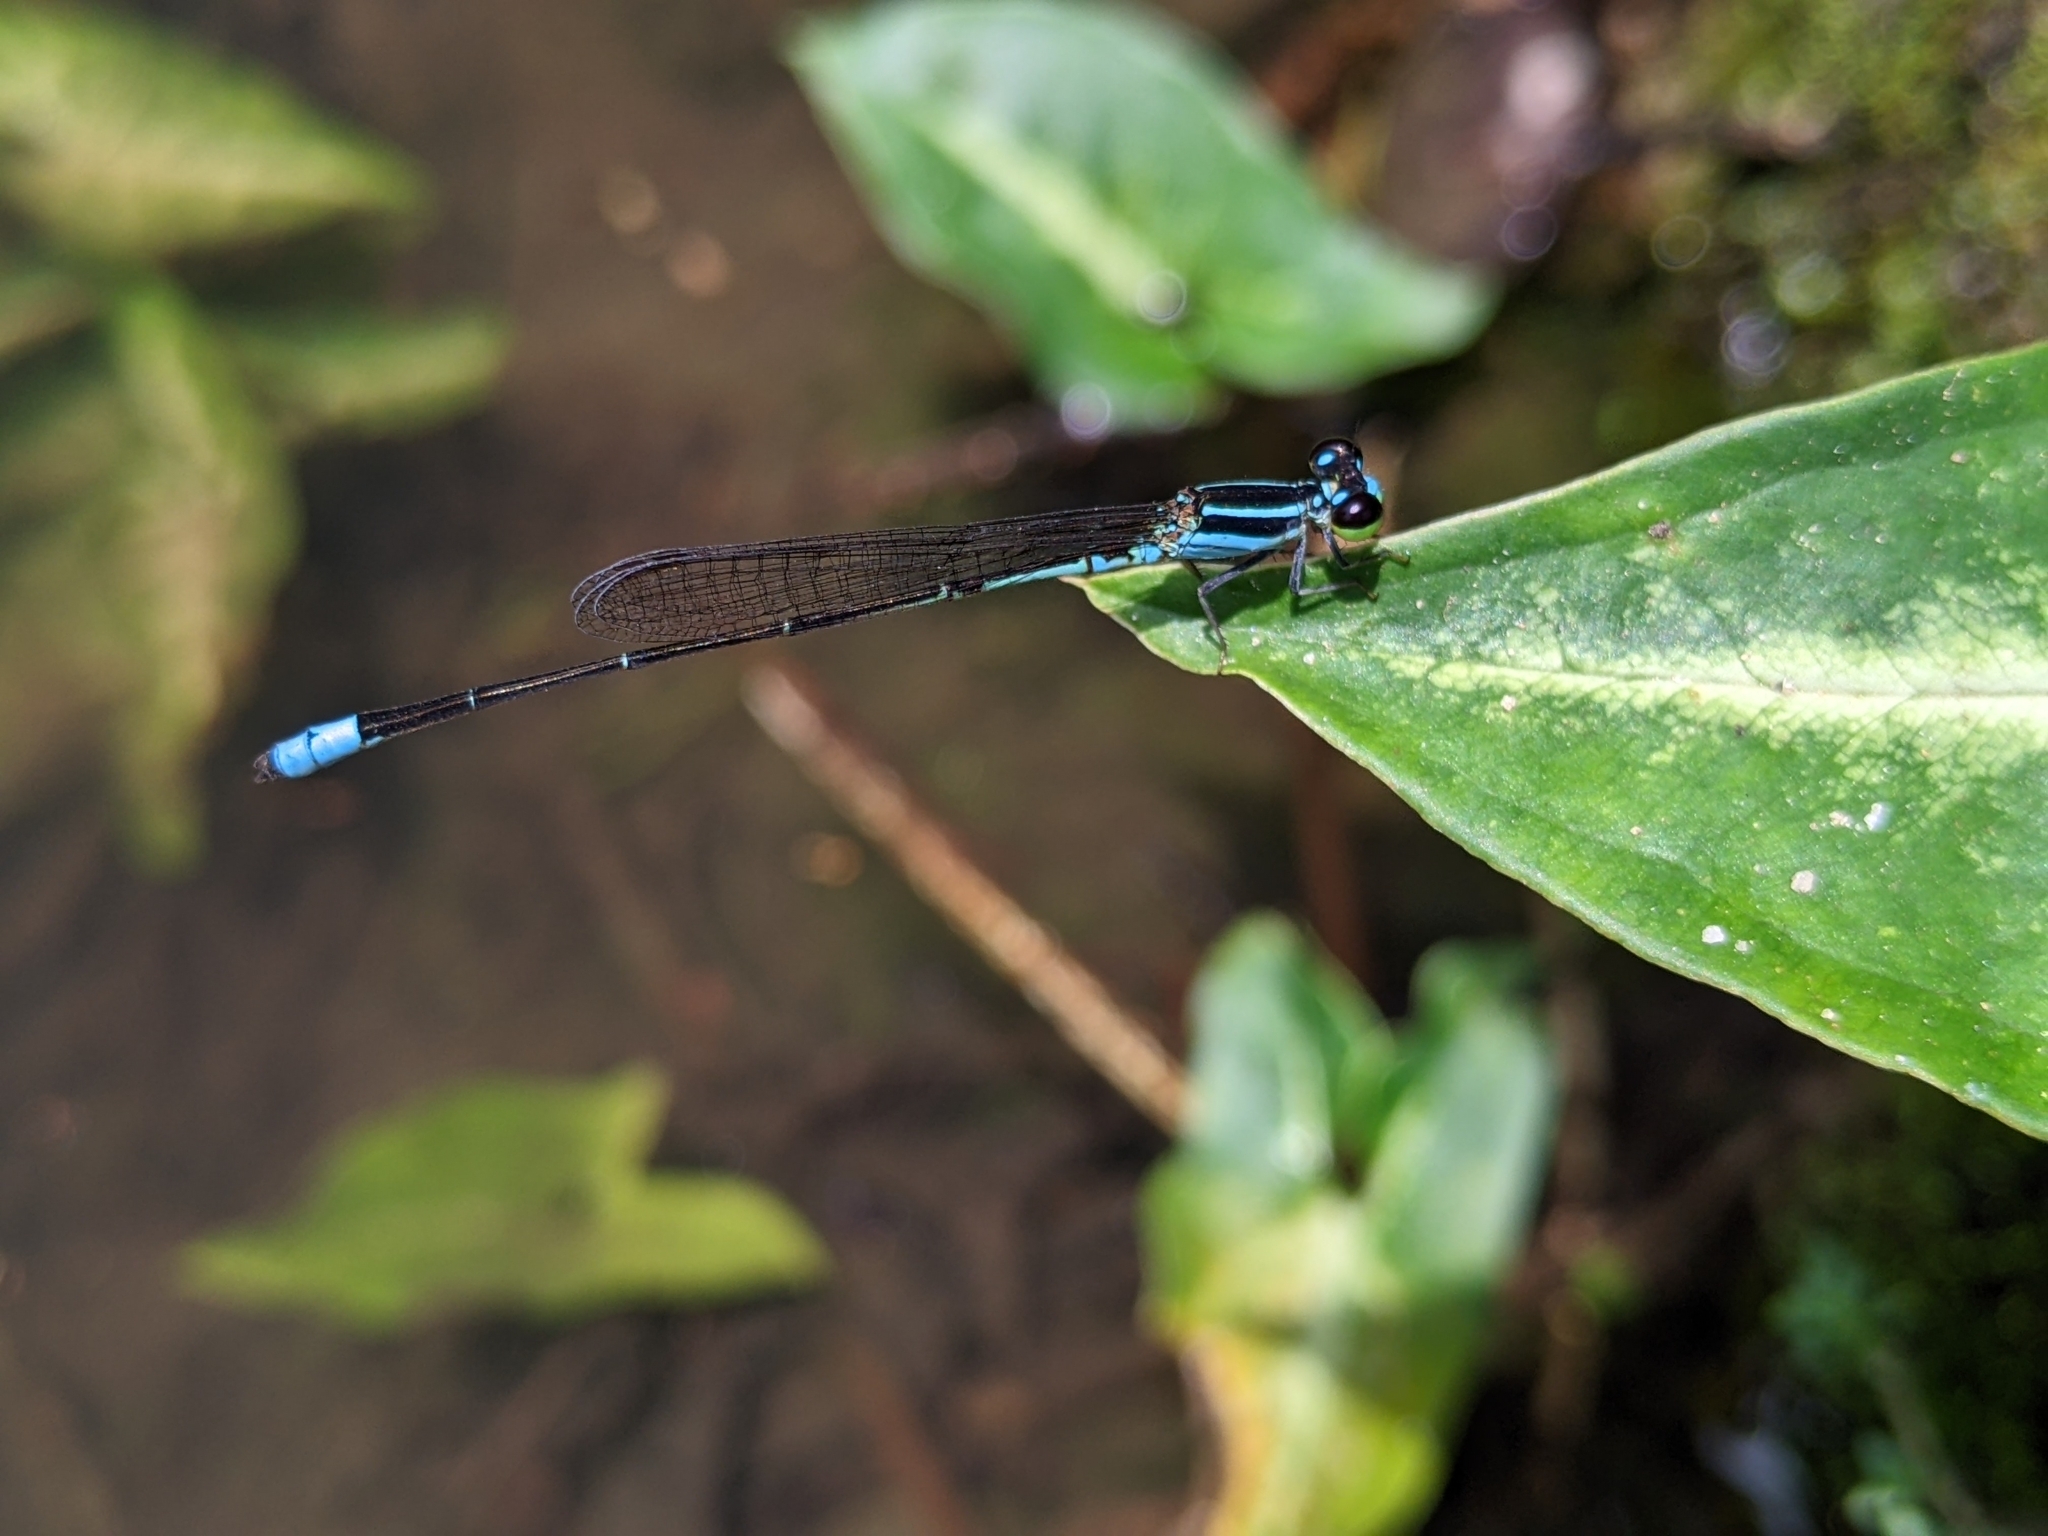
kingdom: Animalia
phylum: Arthropoda
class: Insecta
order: Odonata
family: Coenagrionidae
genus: Argiocnemis
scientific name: Argiocnemis rubescens
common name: Red-tipped shadefly
